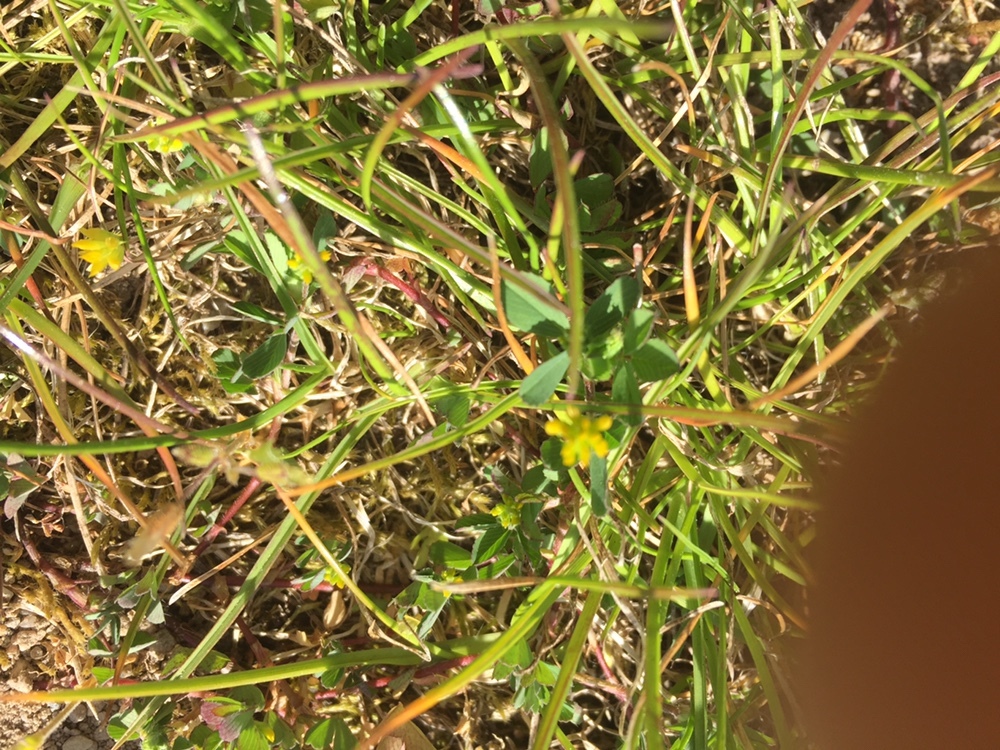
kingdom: Plantae
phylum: Tracheophyta
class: Magnoliopsida
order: Fabales
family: Fabaceae
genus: Trifolium
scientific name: Trifolium dubium
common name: Suckling clover
